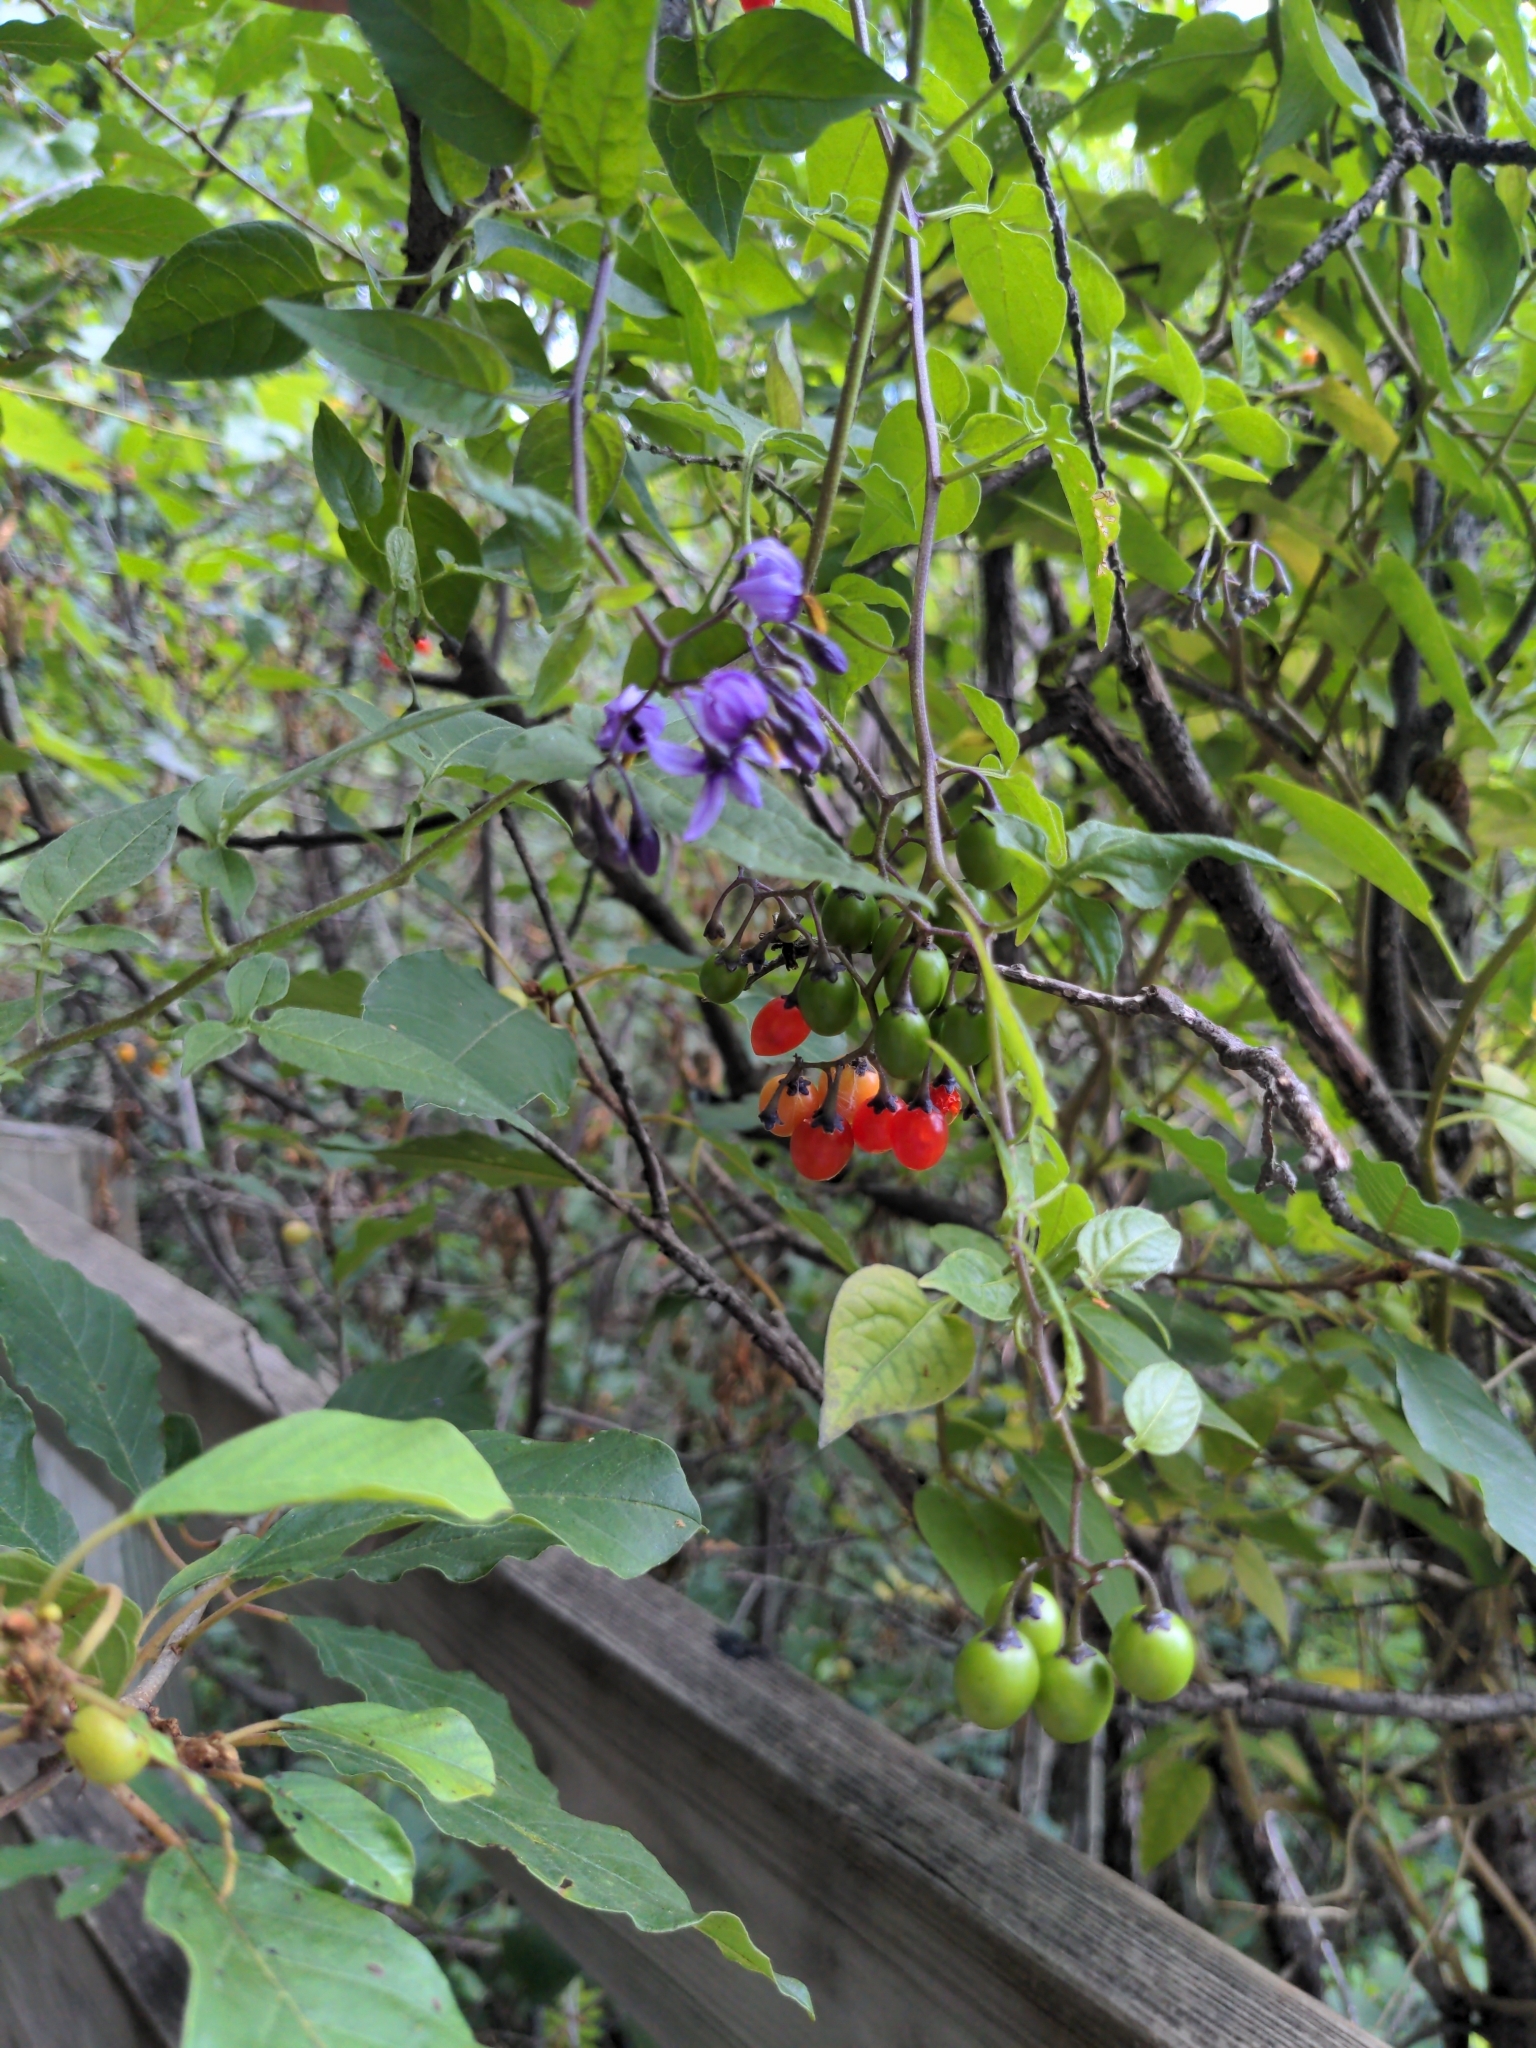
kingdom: Plantae
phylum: Tracheophyta
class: Magnoliopsida
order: Solanales
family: Solanaceae
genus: Solanum
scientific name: Solanum dulcamara
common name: Climbing nightshade
